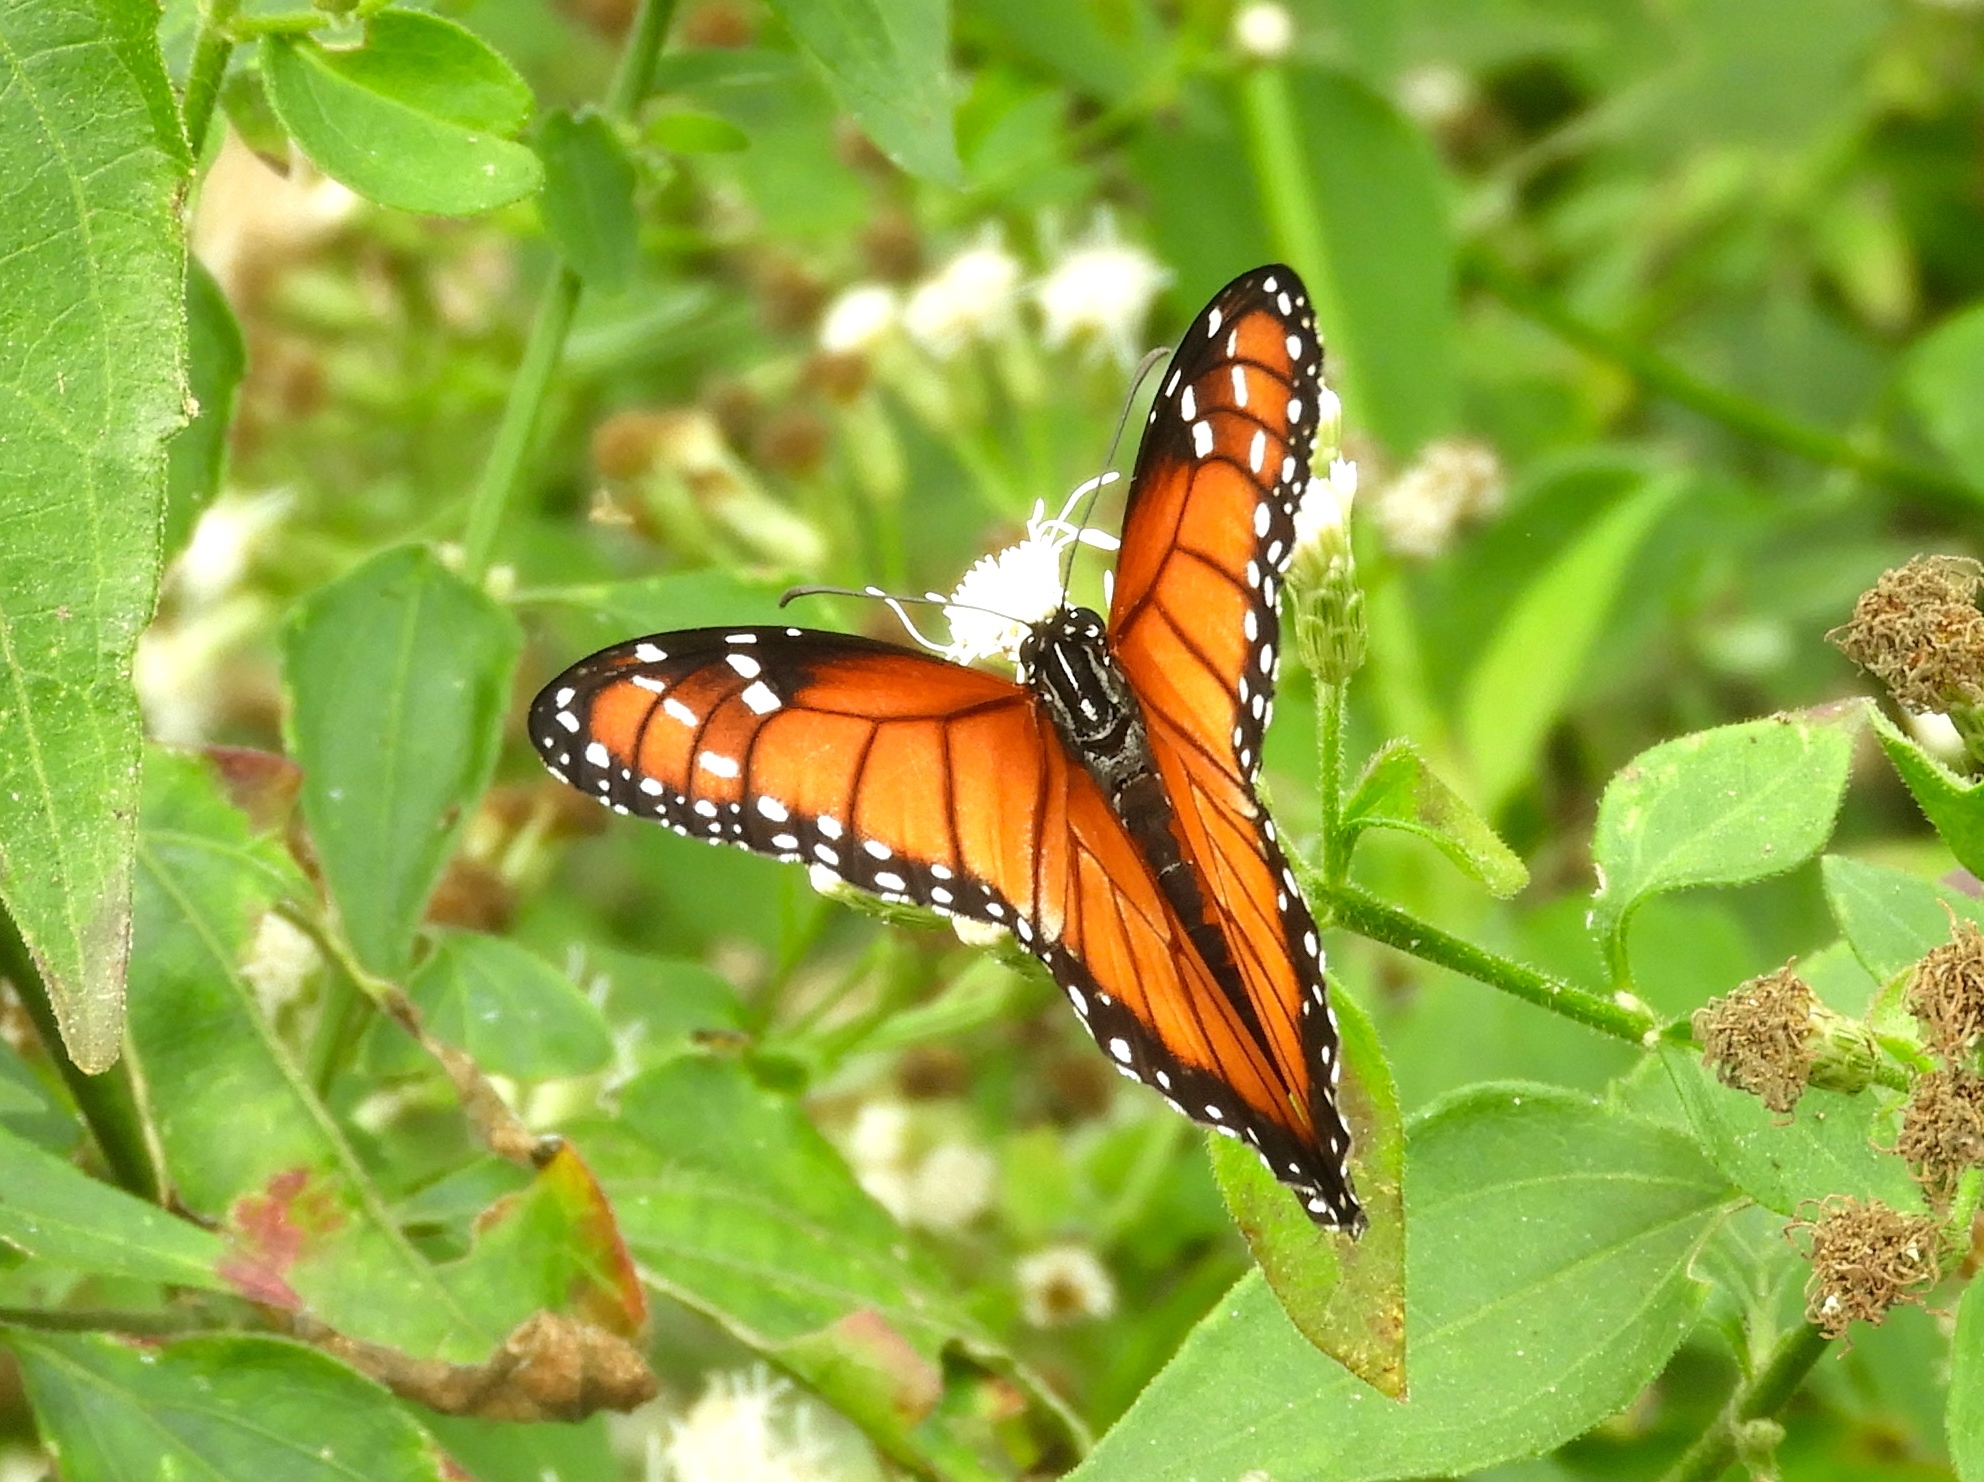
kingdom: Animalia
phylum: Arthropoda
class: Insecta
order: Lepidoptera
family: Nymphalidae
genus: Danaus
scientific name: Danaus eresimus
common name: Soldier
